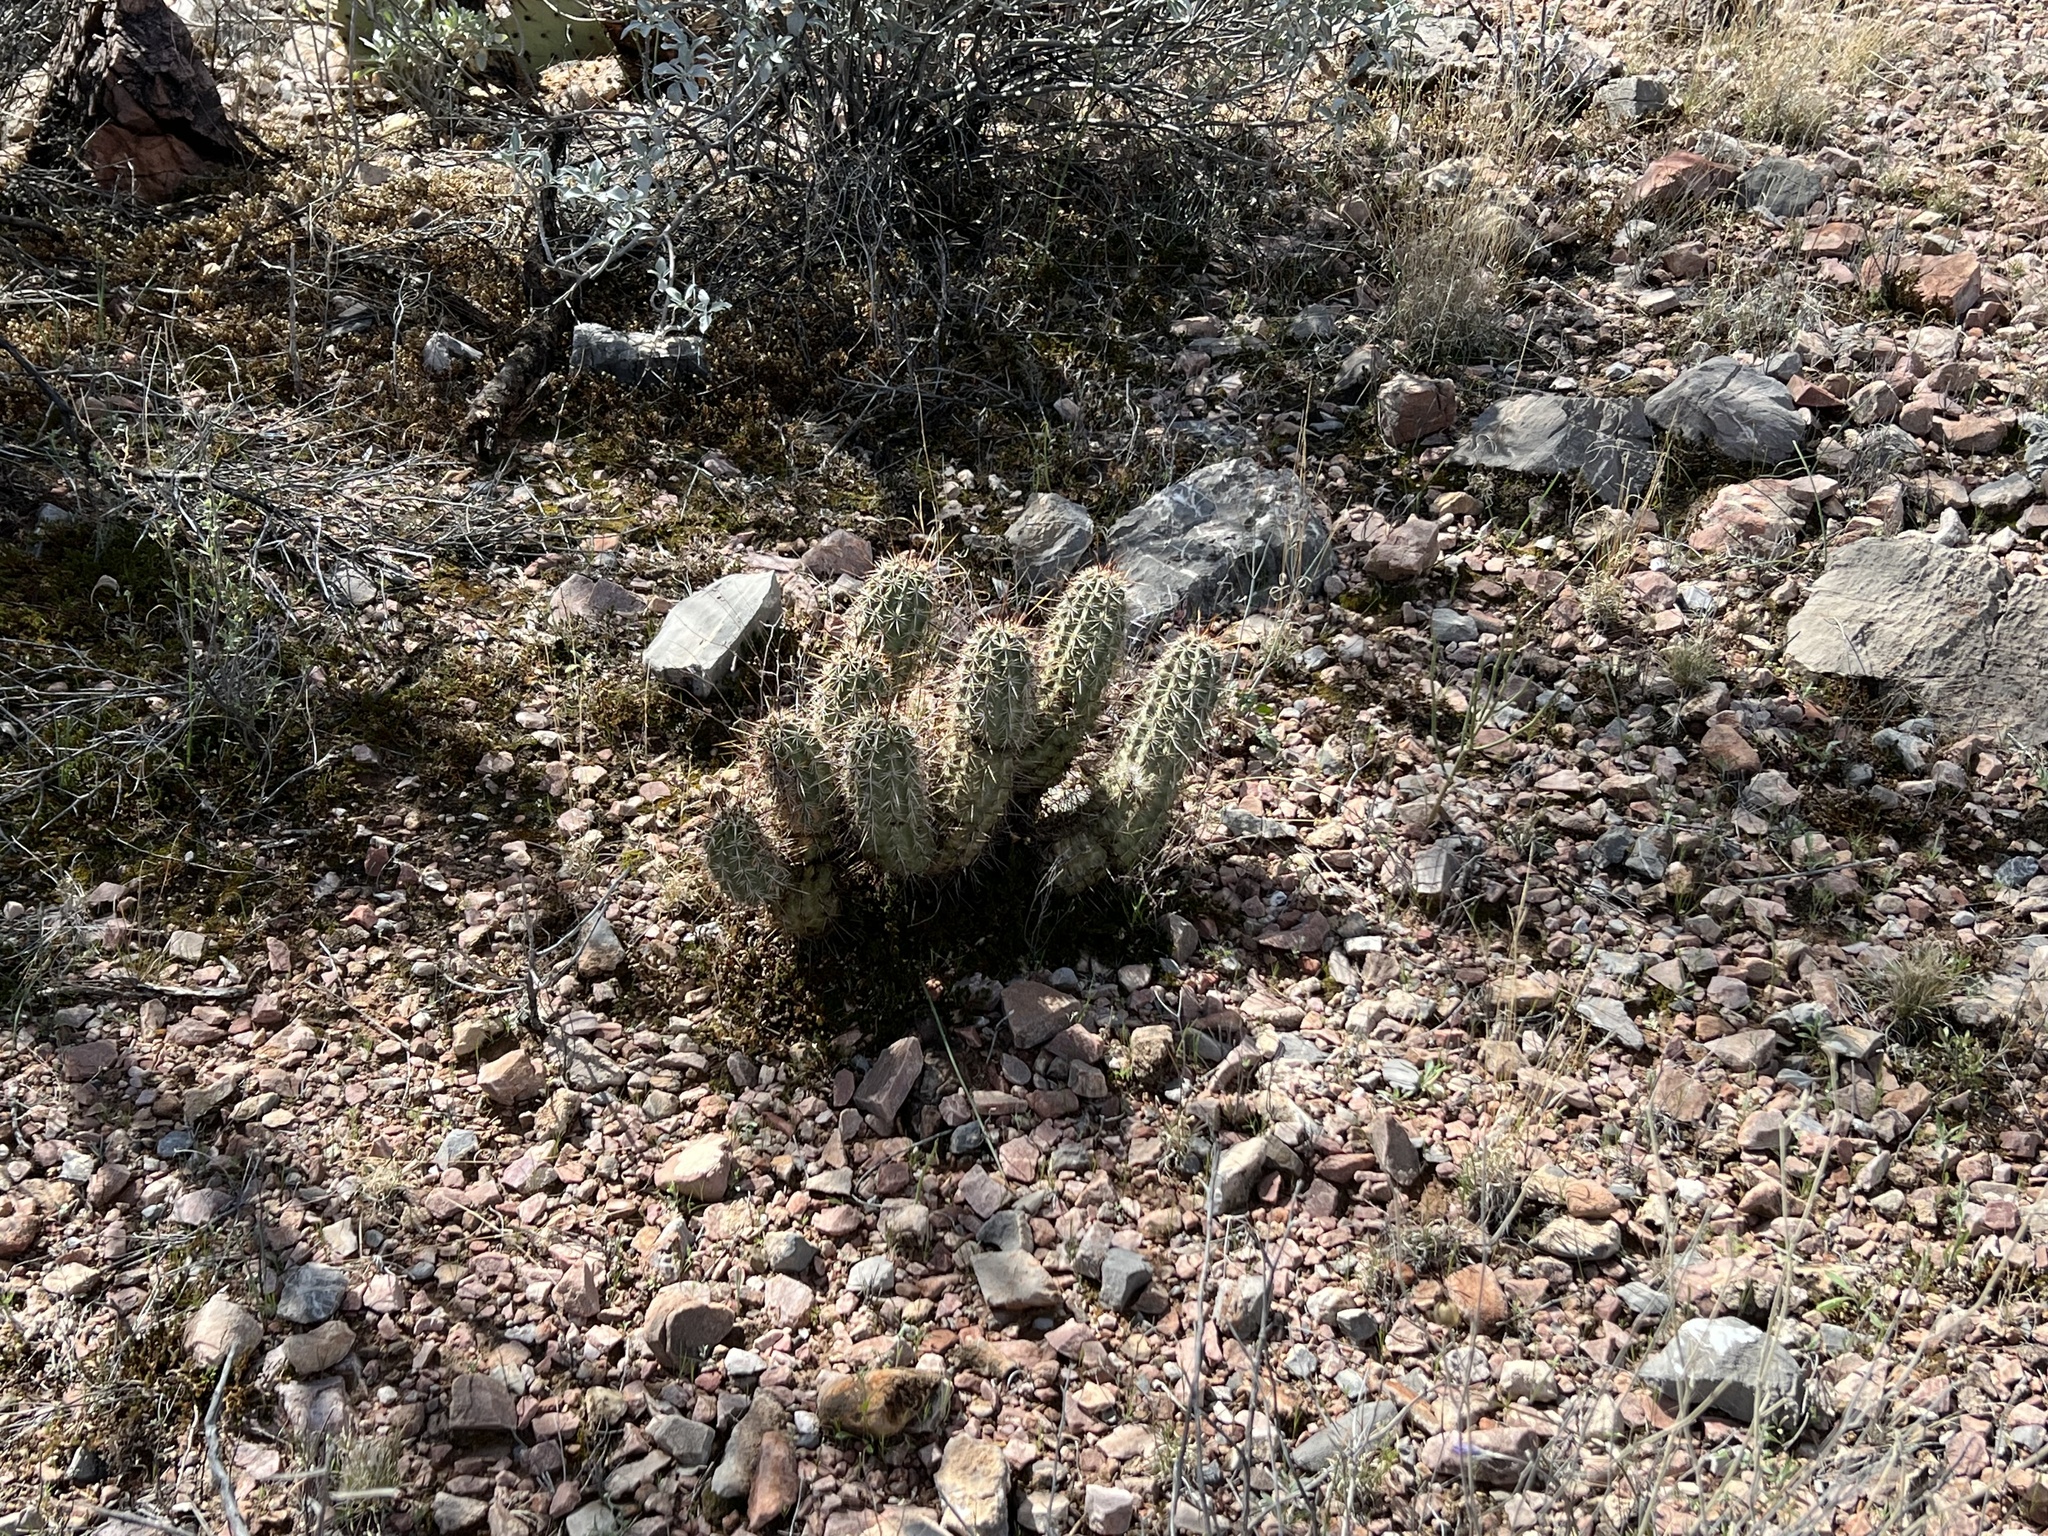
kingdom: Plantae
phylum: Tracheophyta
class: Magnoliopsida
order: Caryophyllales
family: Cactaceae
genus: Echinocereus
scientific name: Echinocereus fasciculatus
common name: Bundle hedgehog
